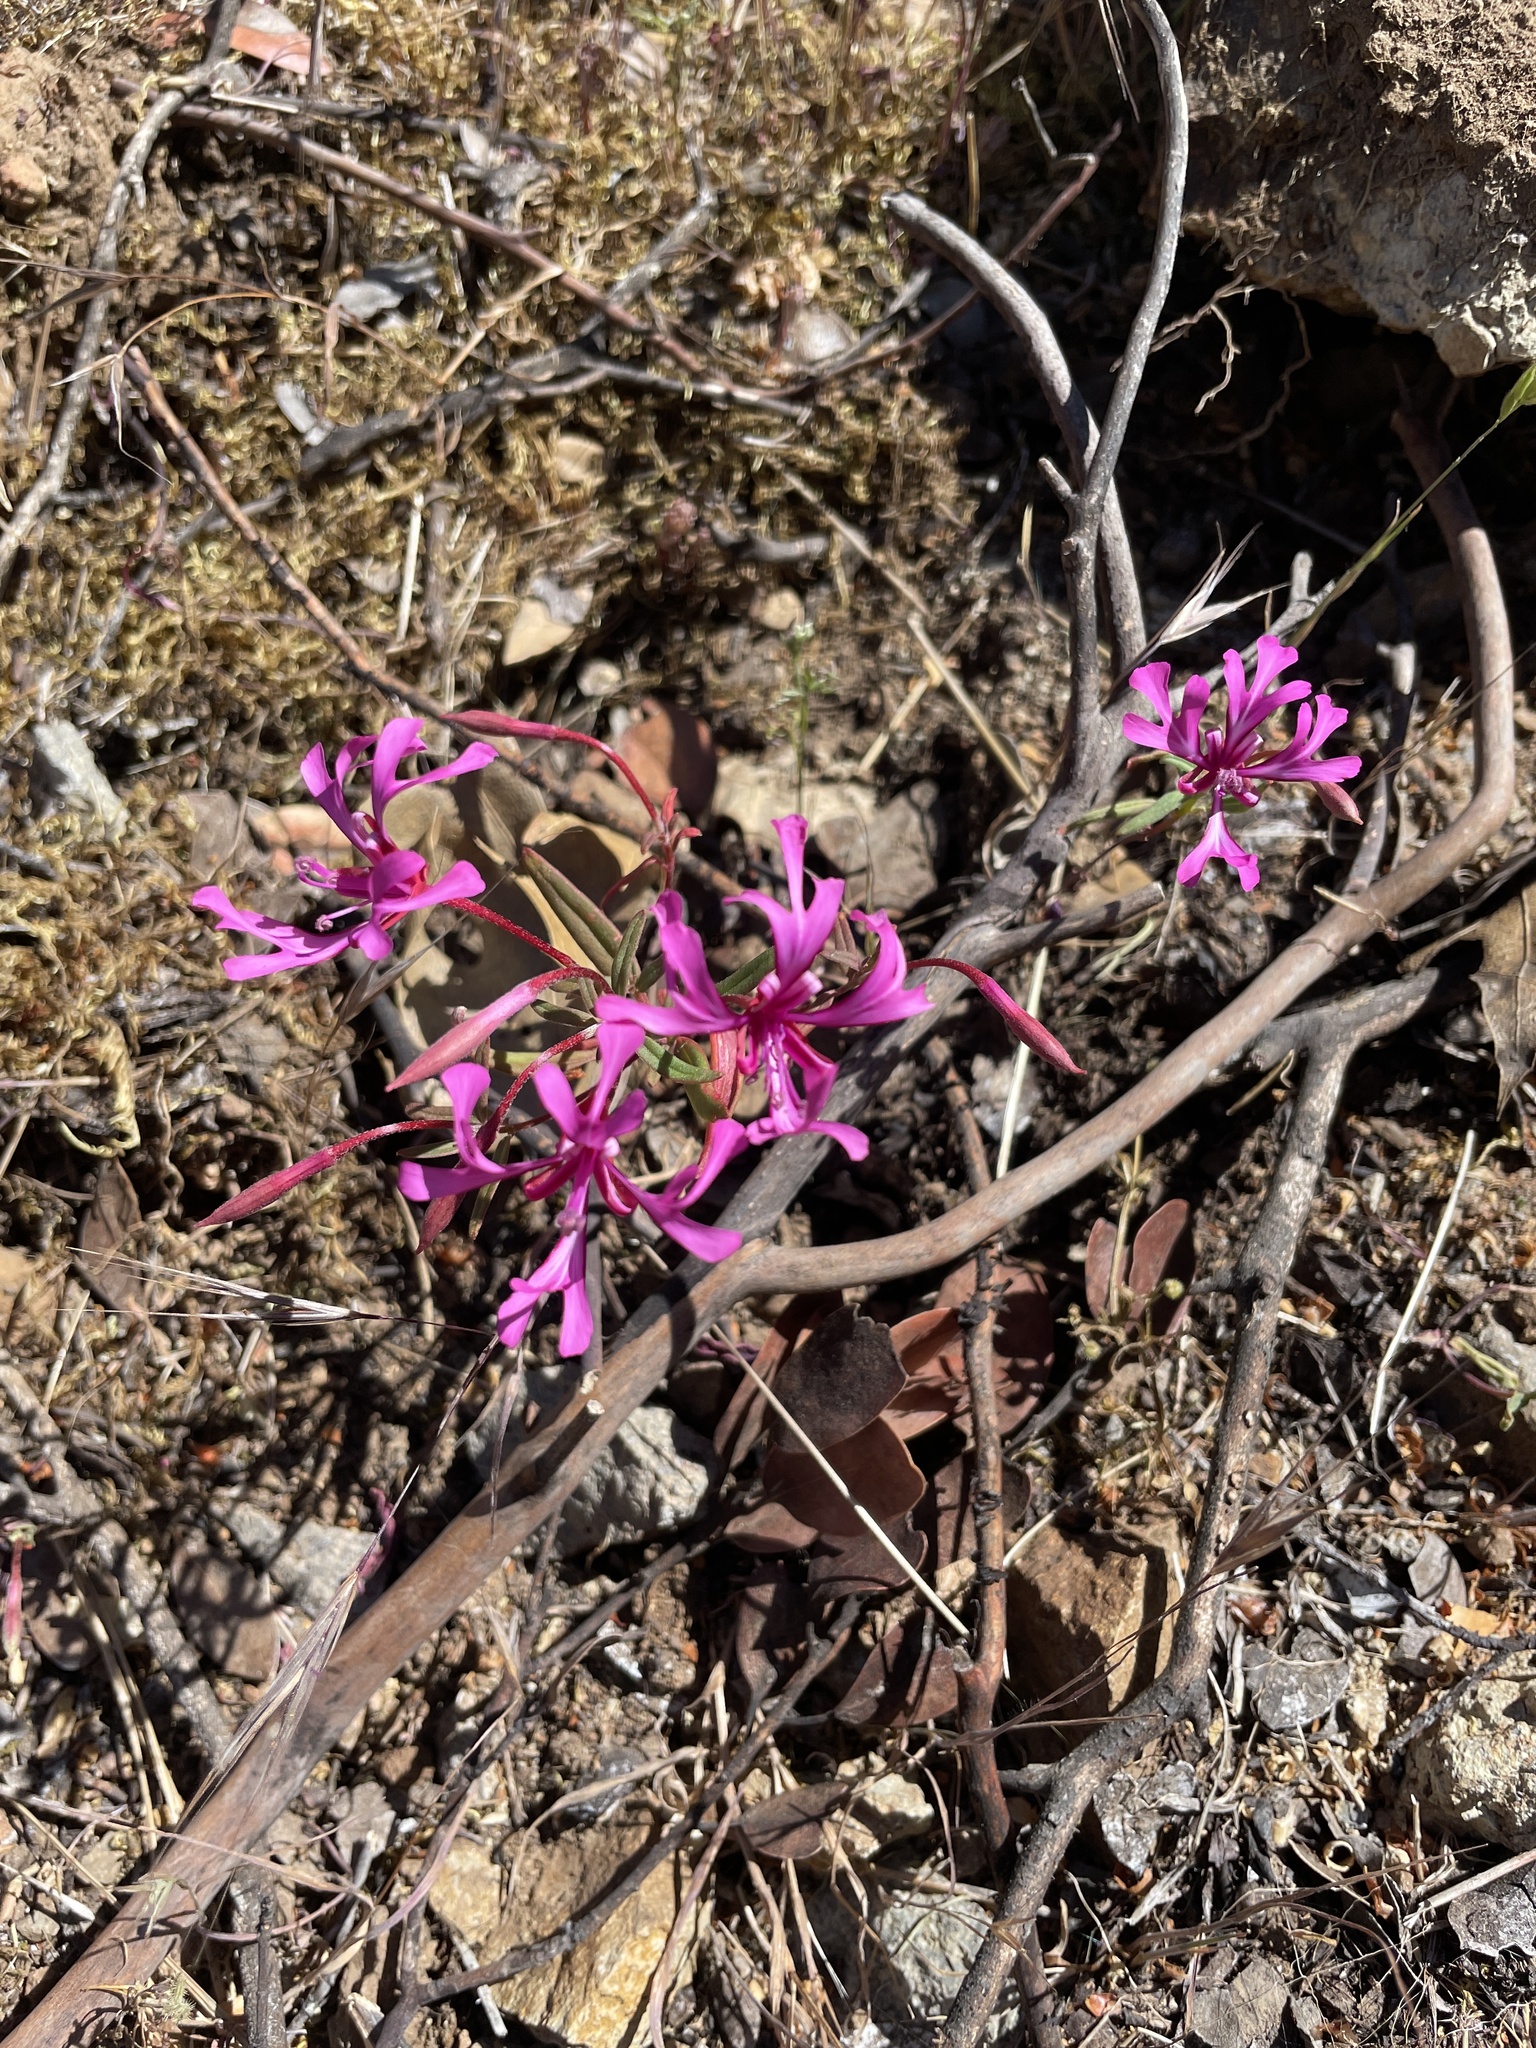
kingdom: Plantae
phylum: Tracheophyta
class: Magnoliopsida
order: Myrtales
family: Onagraceae
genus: Clarkia
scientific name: Clarkia concinna
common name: Red-ribbons
